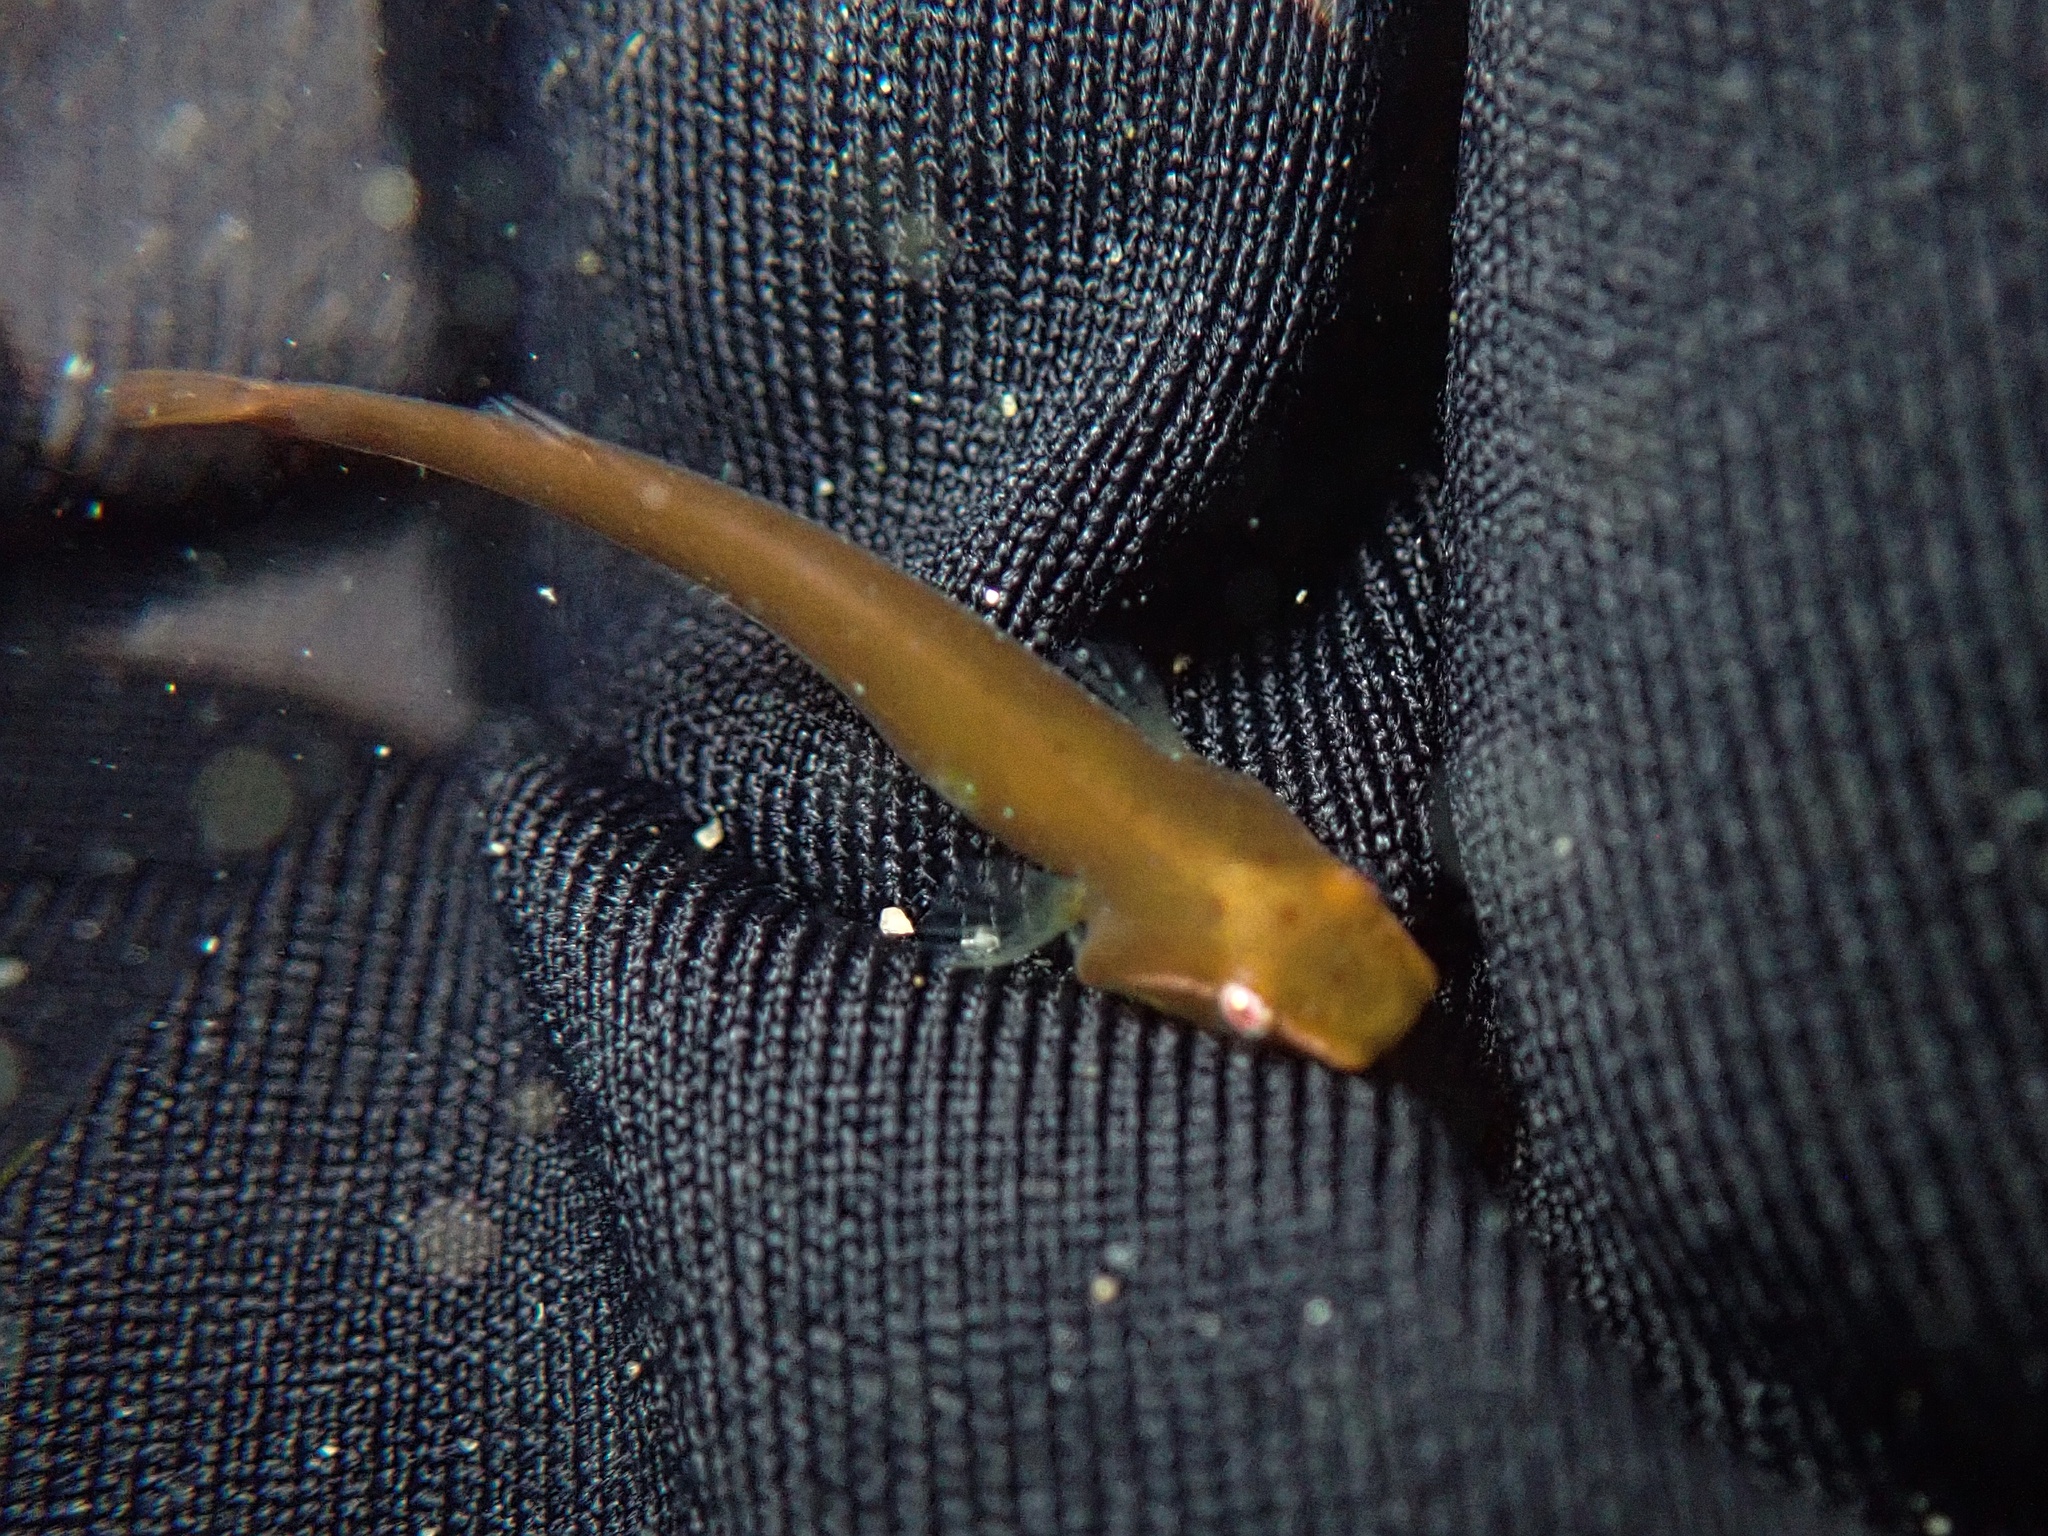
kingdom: Animalia
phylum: Chordata
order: Gobiesociformes
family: Gobiesocidae
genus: Rimicola
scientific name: Rimicola muscarum
